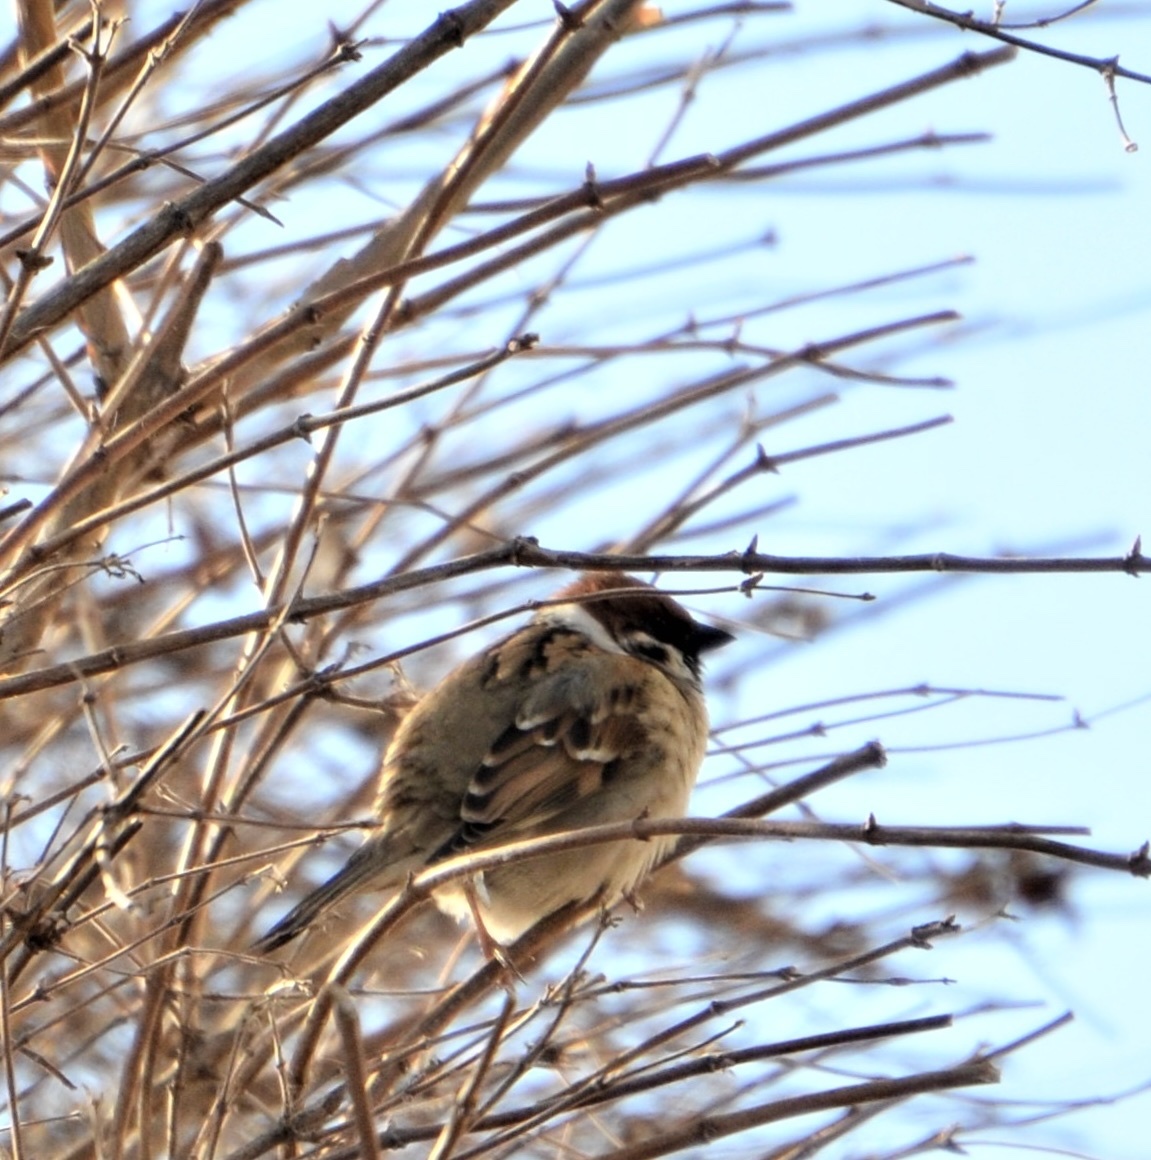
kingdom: Animalia
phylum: Chordata
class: Aves
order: Passeriformes
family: Passeridae
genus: Passer
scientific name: Passer montanus
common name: Eurasian tree sparrow
